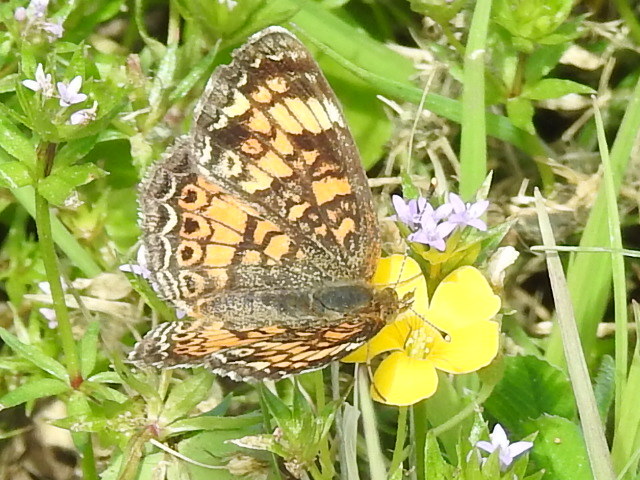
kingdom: Animalia
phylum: Arthropoda
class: Insecta
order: Lepidoptera
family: Nymphalidae
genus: Phyciodes
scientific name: Phyciodes tharos
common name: Pearl crescent
